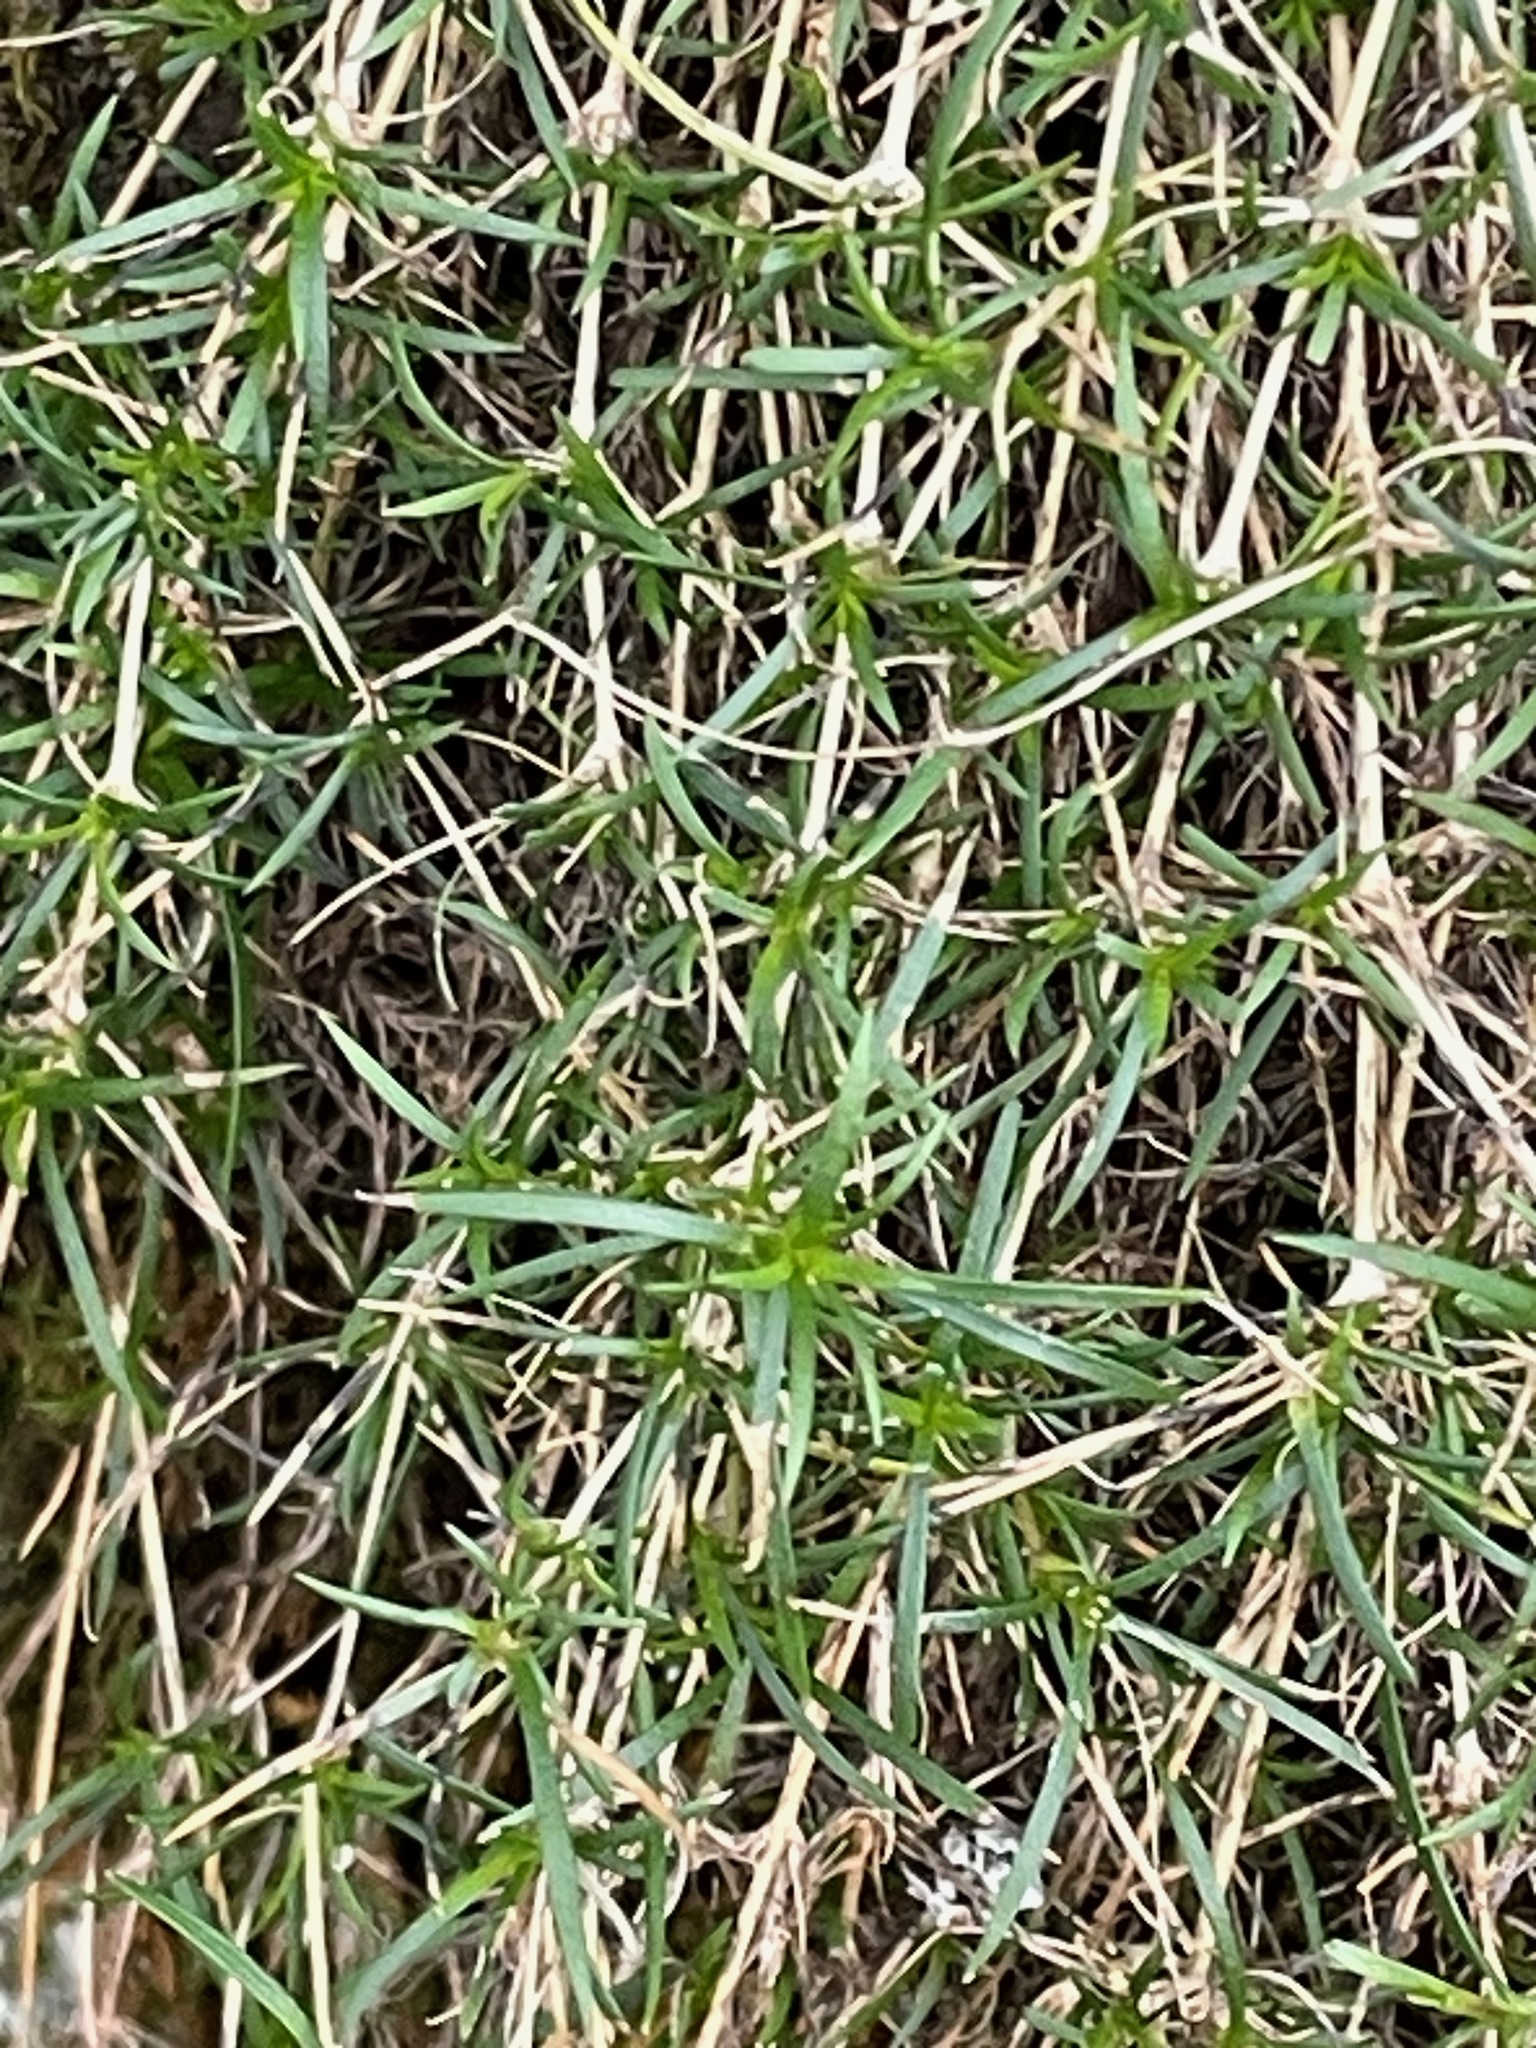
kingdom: Plantae
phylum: Tracheophyta
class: Magnoliopsida
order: Caryophyllales
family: Caryophyllaceae
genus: Sabulina
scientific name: Sabulina michauxii
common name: Michaux's stitchwort
